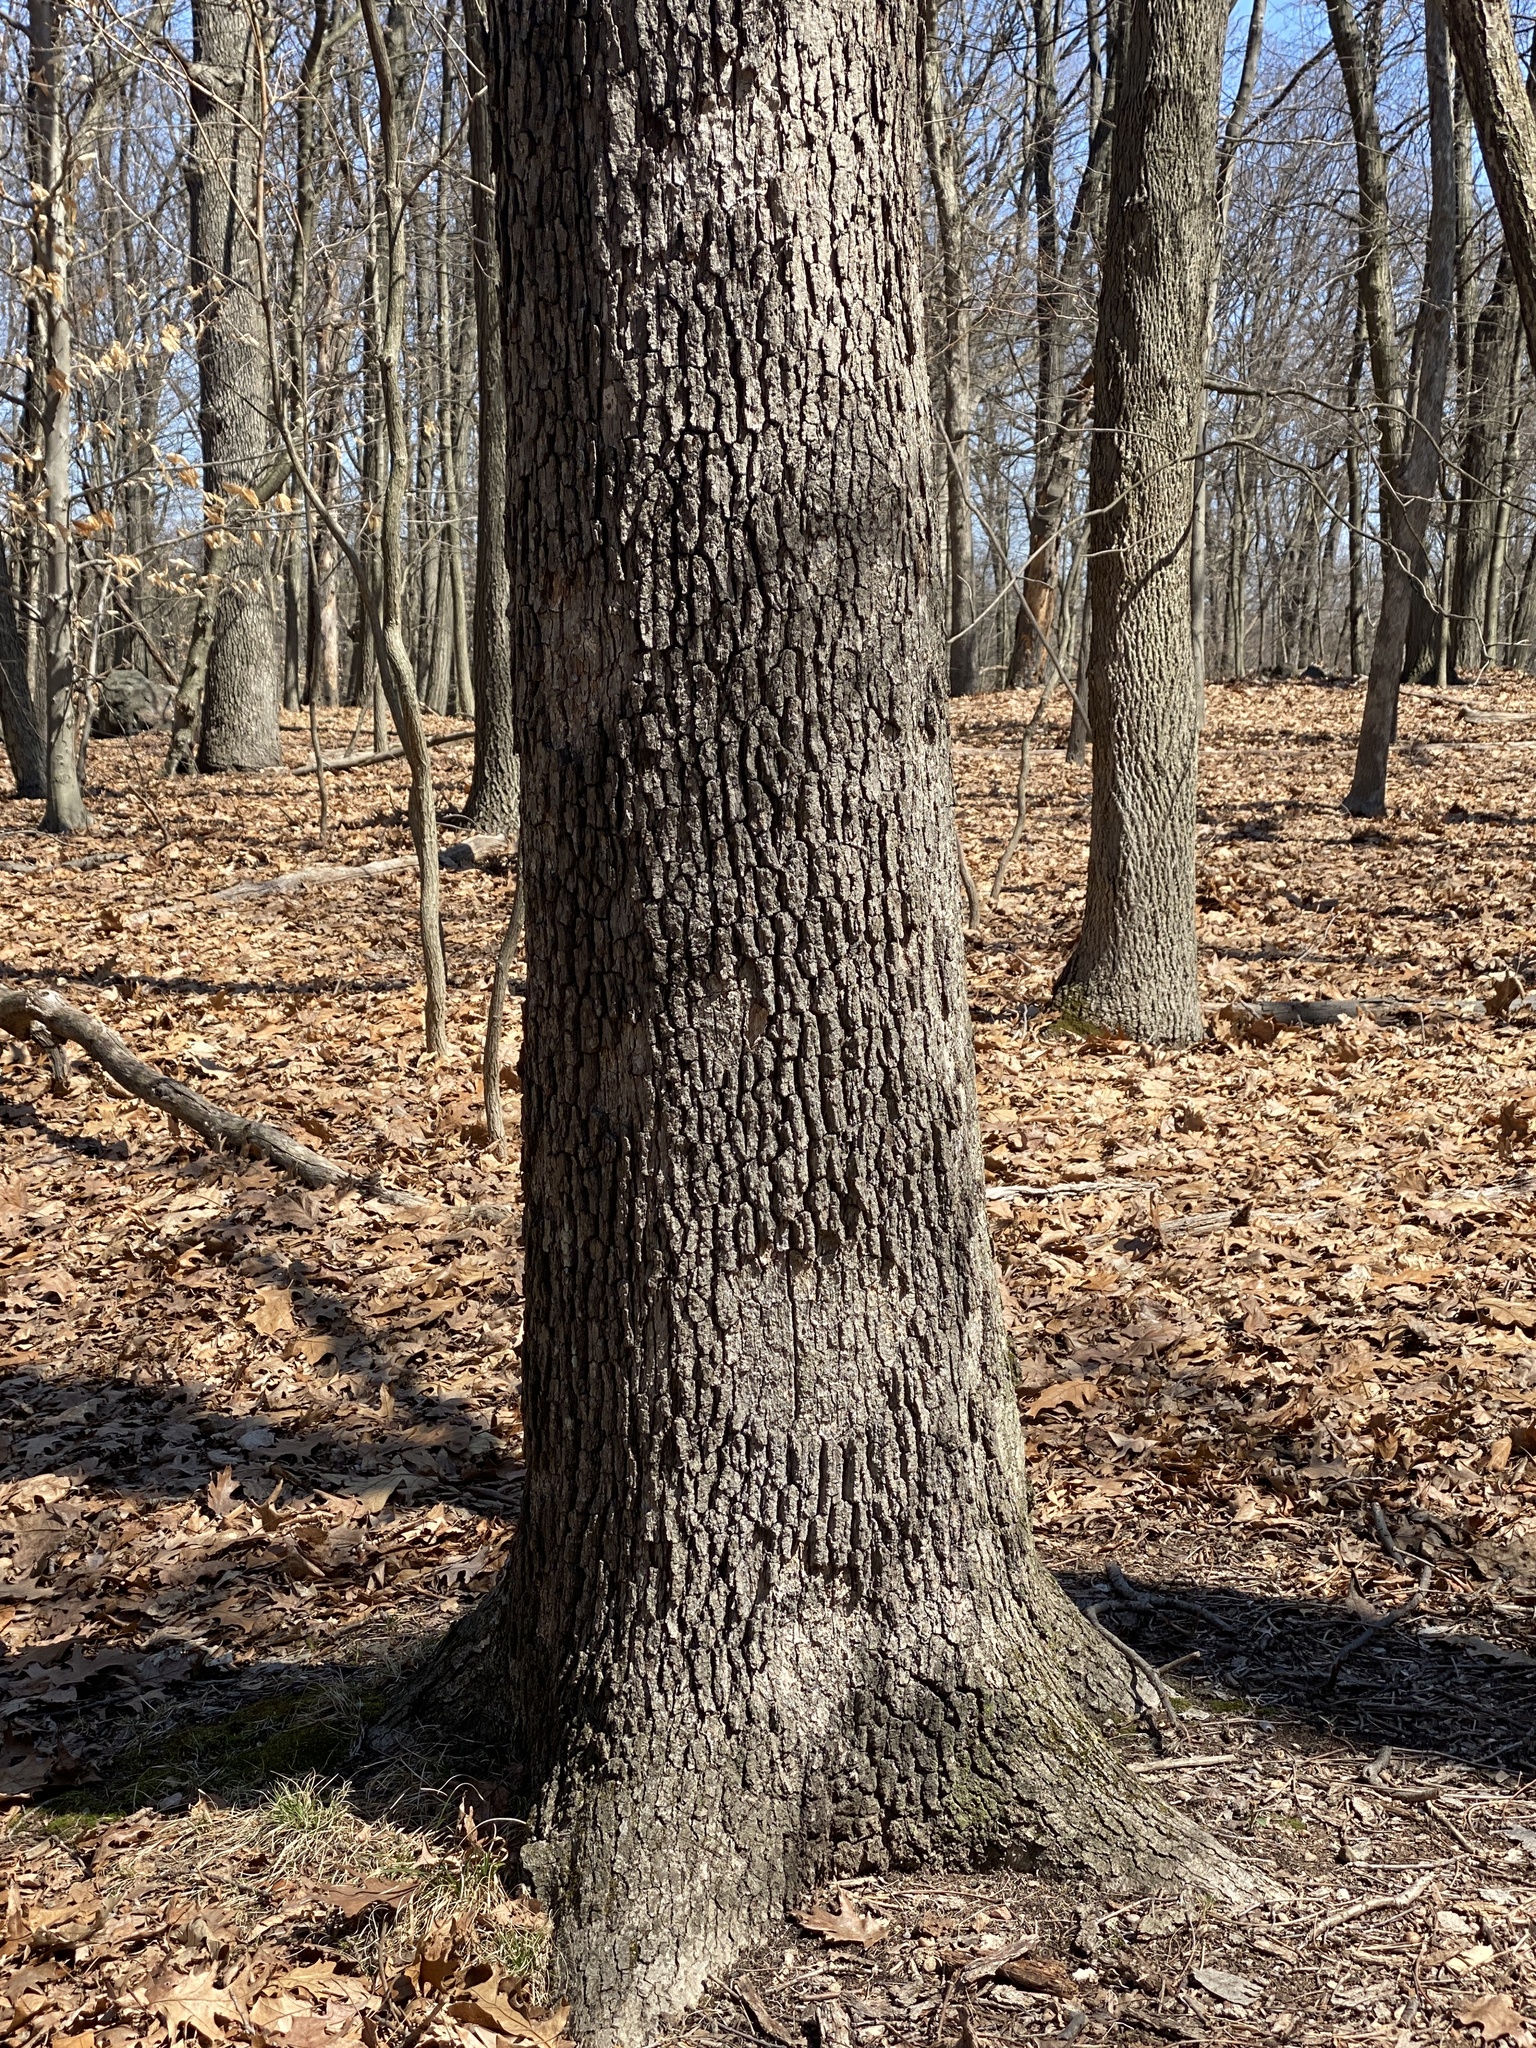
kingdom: Fungi
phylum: Basidiomycota
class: Agaricomycetes
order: Russulales
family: Stereaceae
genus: Acanthophysium
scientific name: Acanthophysium oakesii
